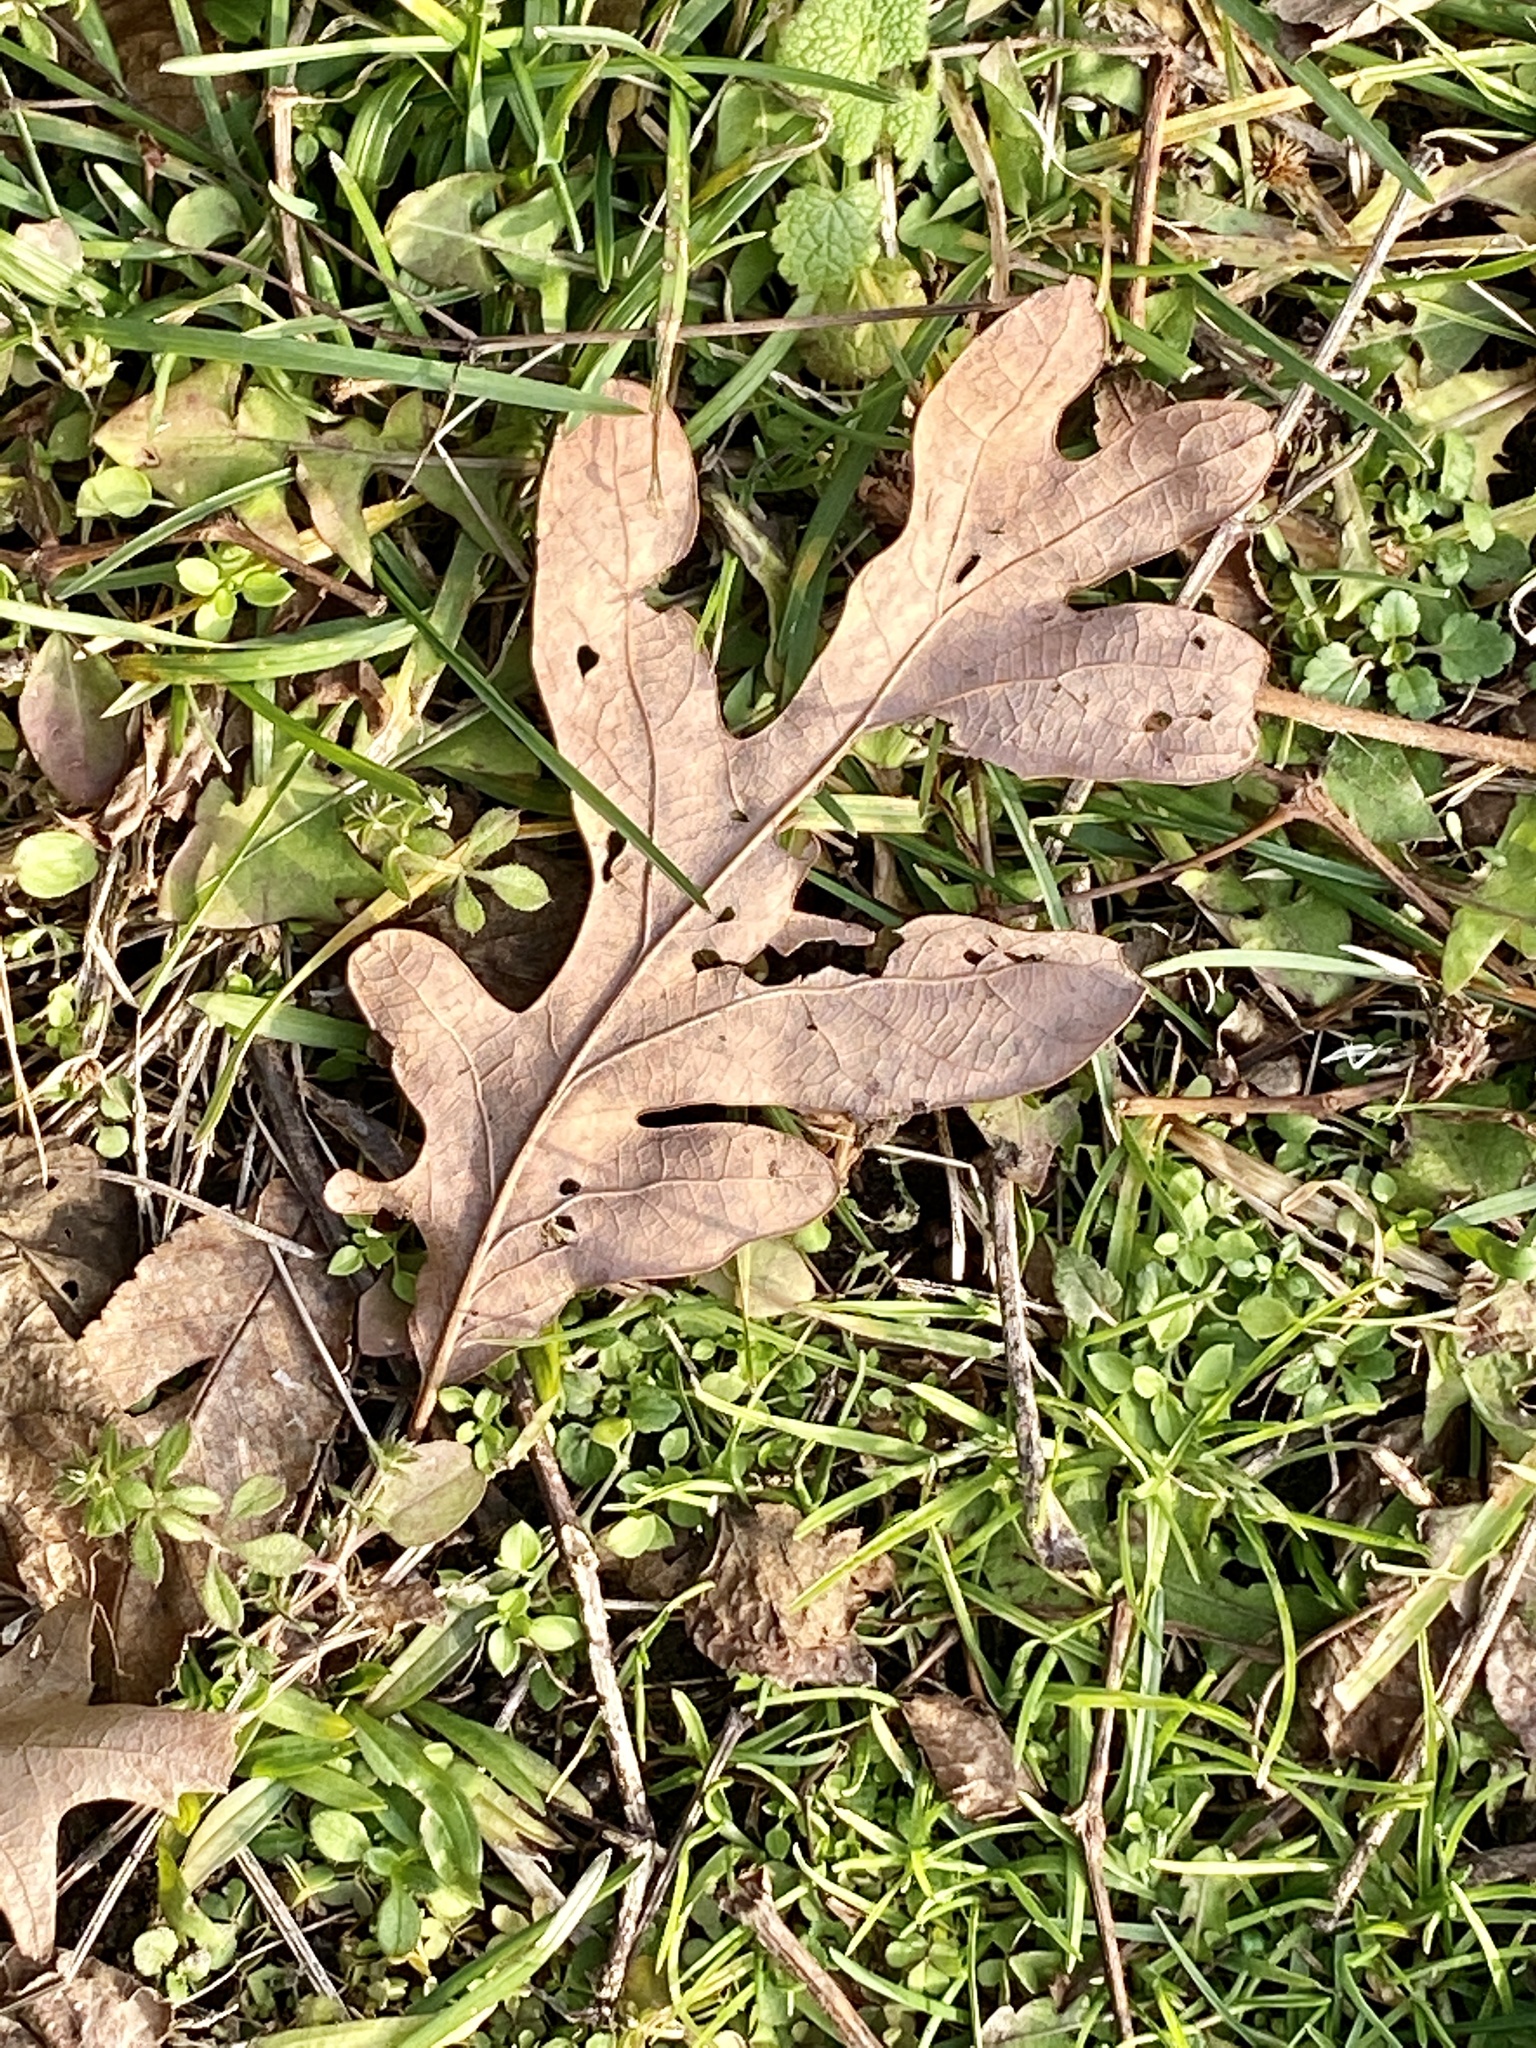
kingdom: Plantae
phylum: Tracheophyta
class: Magnoliopsida
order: Fagales
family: Fagaceae
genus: Quercus
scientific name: Quercus alba
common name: White oak
